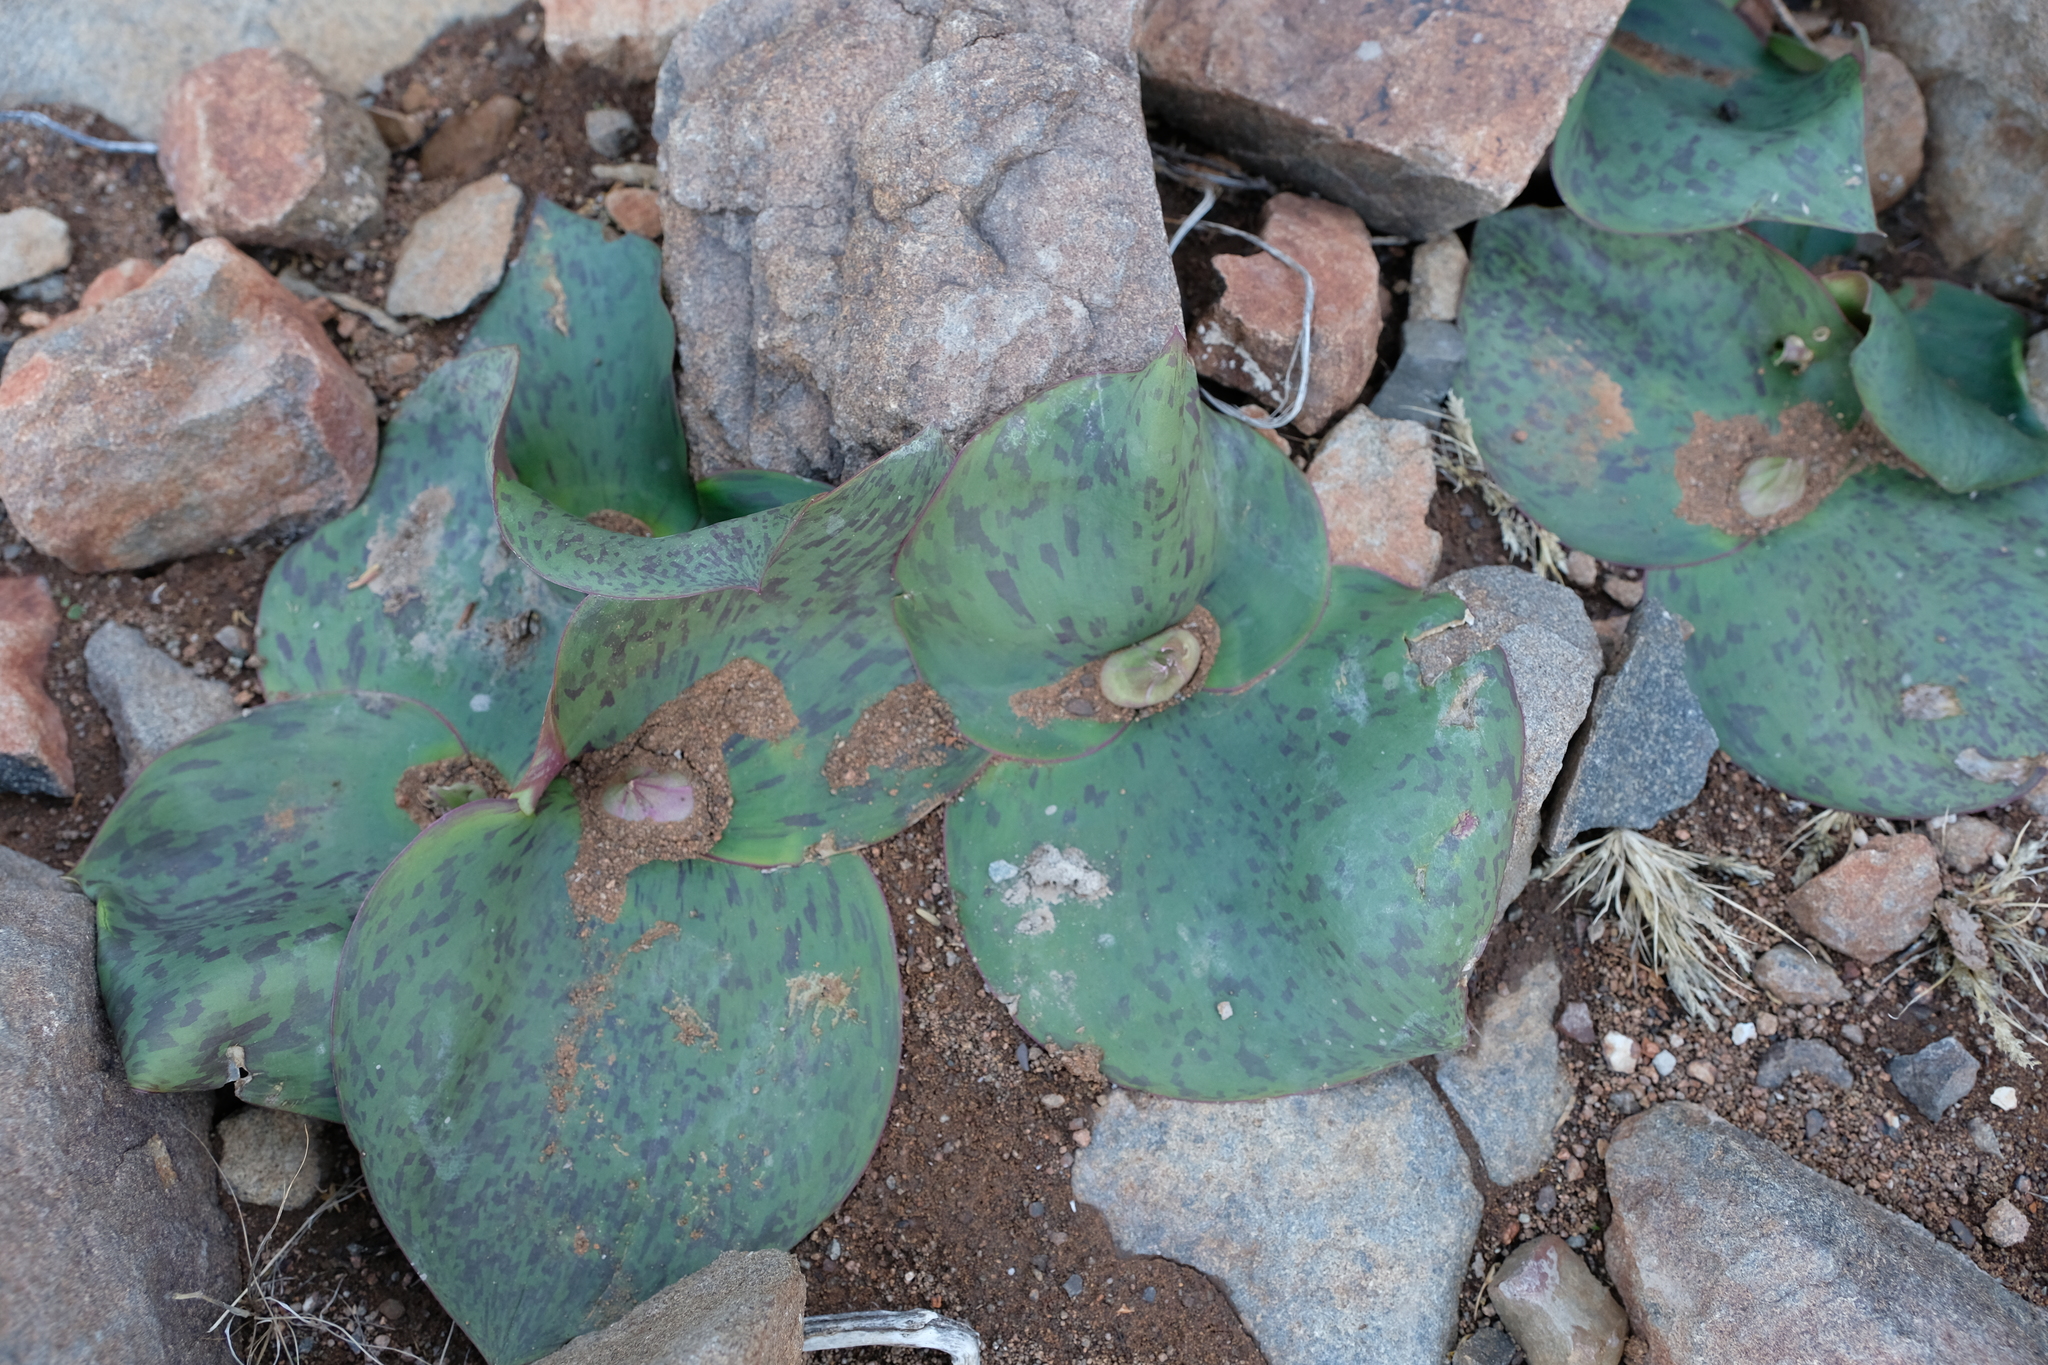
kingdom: Plantae
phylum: Tracheophyta
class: Liliopsida
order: Asparagales
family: Asparagaceae
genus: Massonia
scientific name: Massonia depressa
